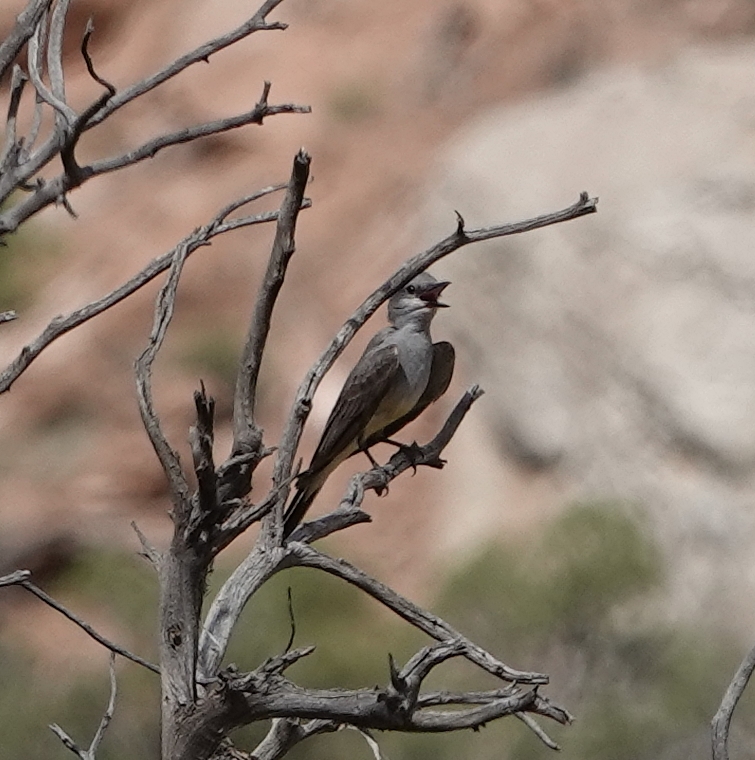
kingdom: Animalia
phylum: Chordata
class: Aves
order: Passeriformes
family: Tyrannidae
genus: Tyrannus
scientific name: Tyrannus verticalis
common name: Western kingbird
